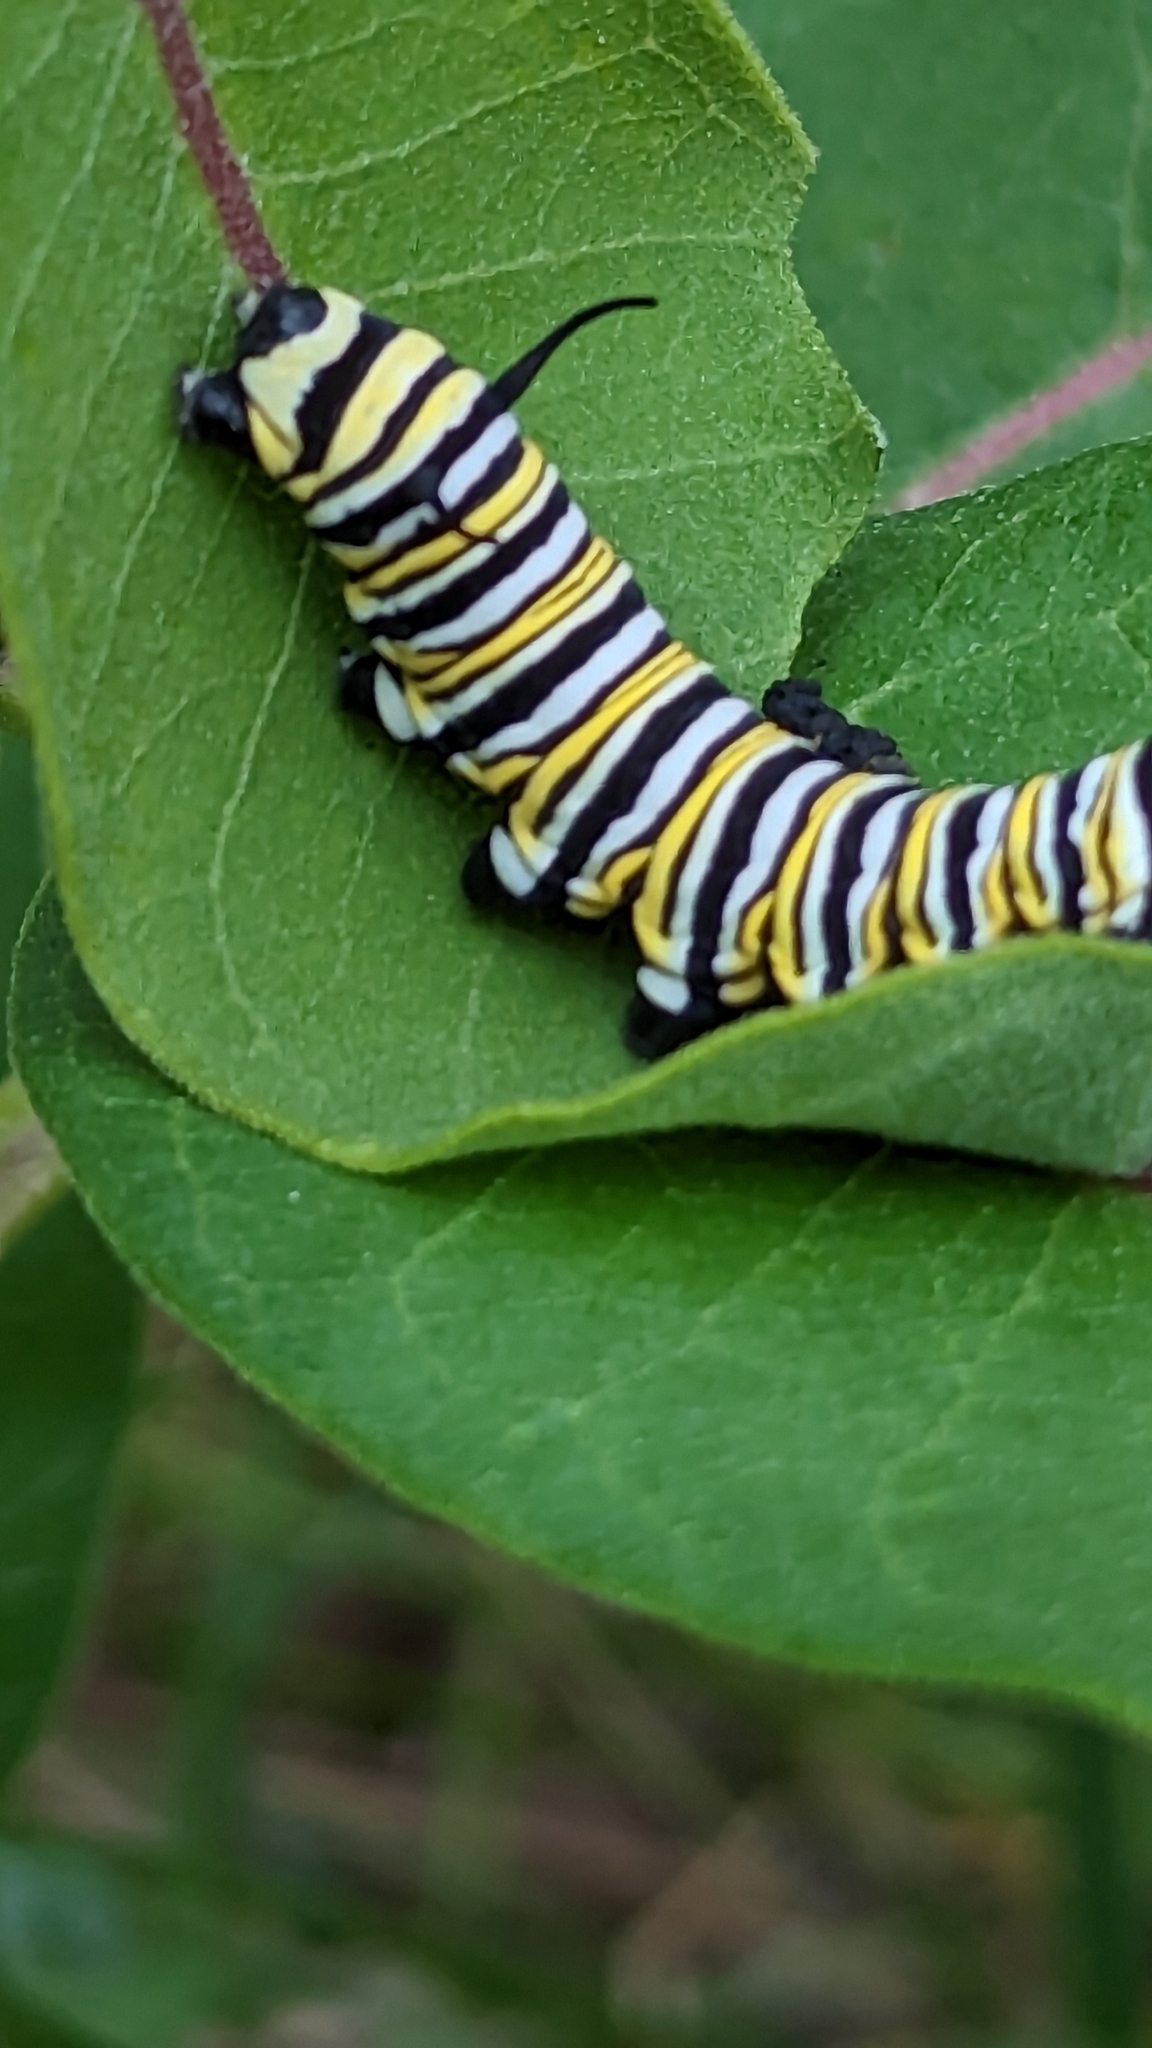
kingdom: Animalia
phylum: Arthropoda
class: Insecta
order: Lepidoptera
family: Nymphalidae
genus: Danaus
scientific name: Danaus plexippus
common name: Monarch
